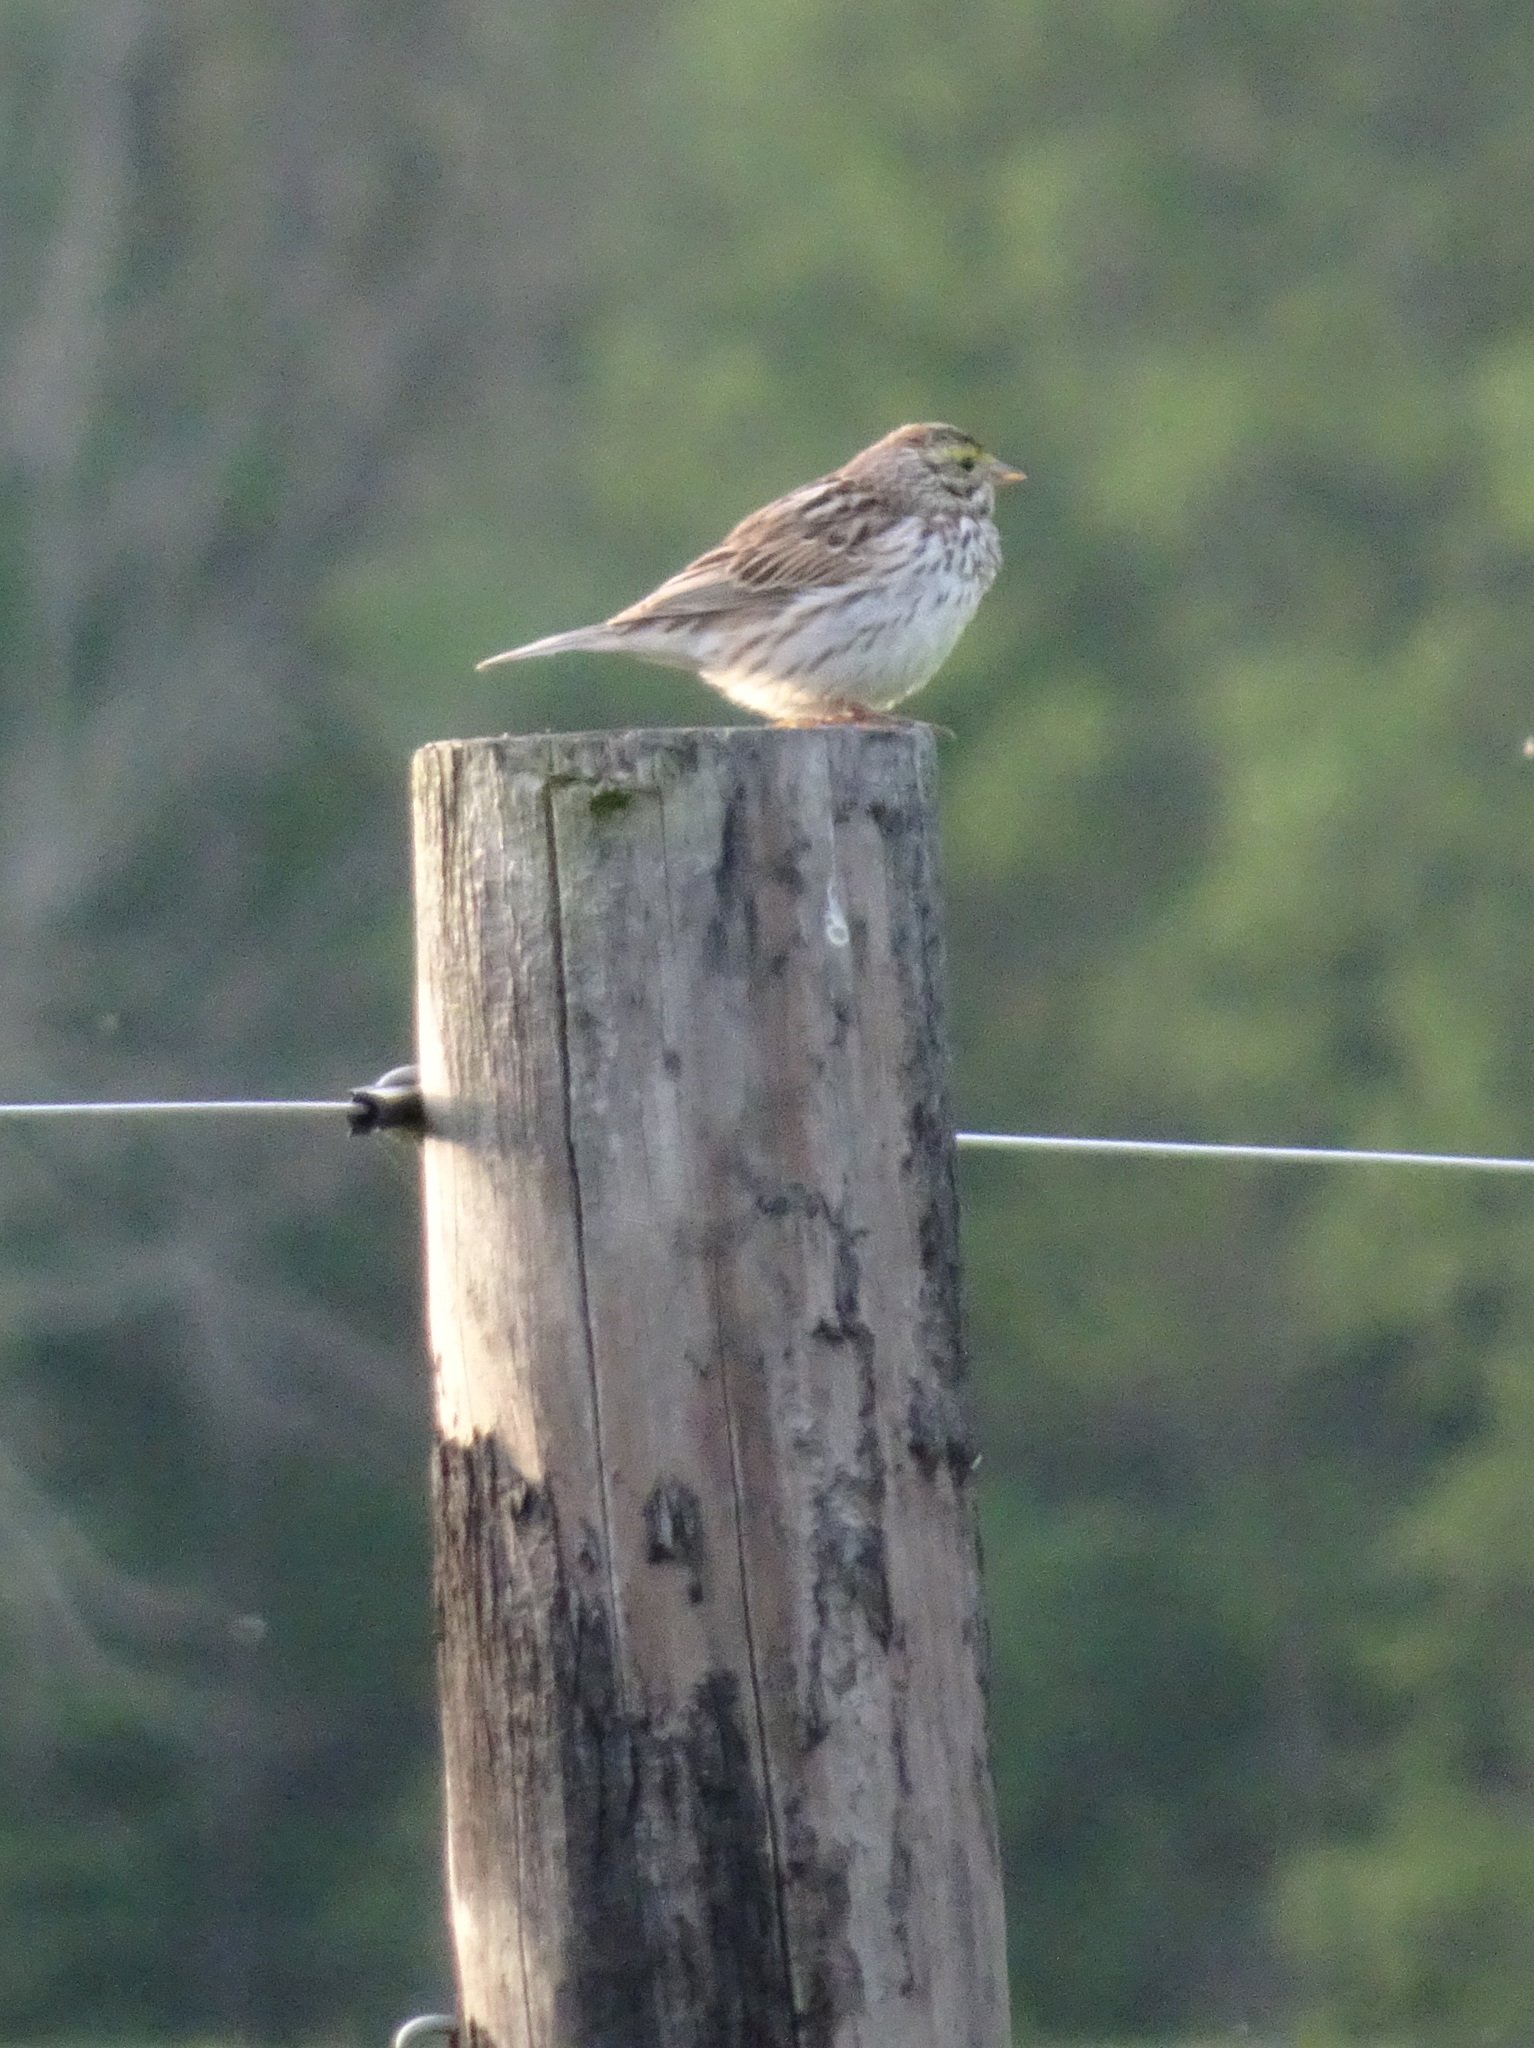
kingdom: Animalia
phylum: Chordata
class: Aves
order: Passeriformes
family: Passerellidae
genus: Passerculus
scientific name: Passerculus sandwichensis
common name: Savannah sparrow
